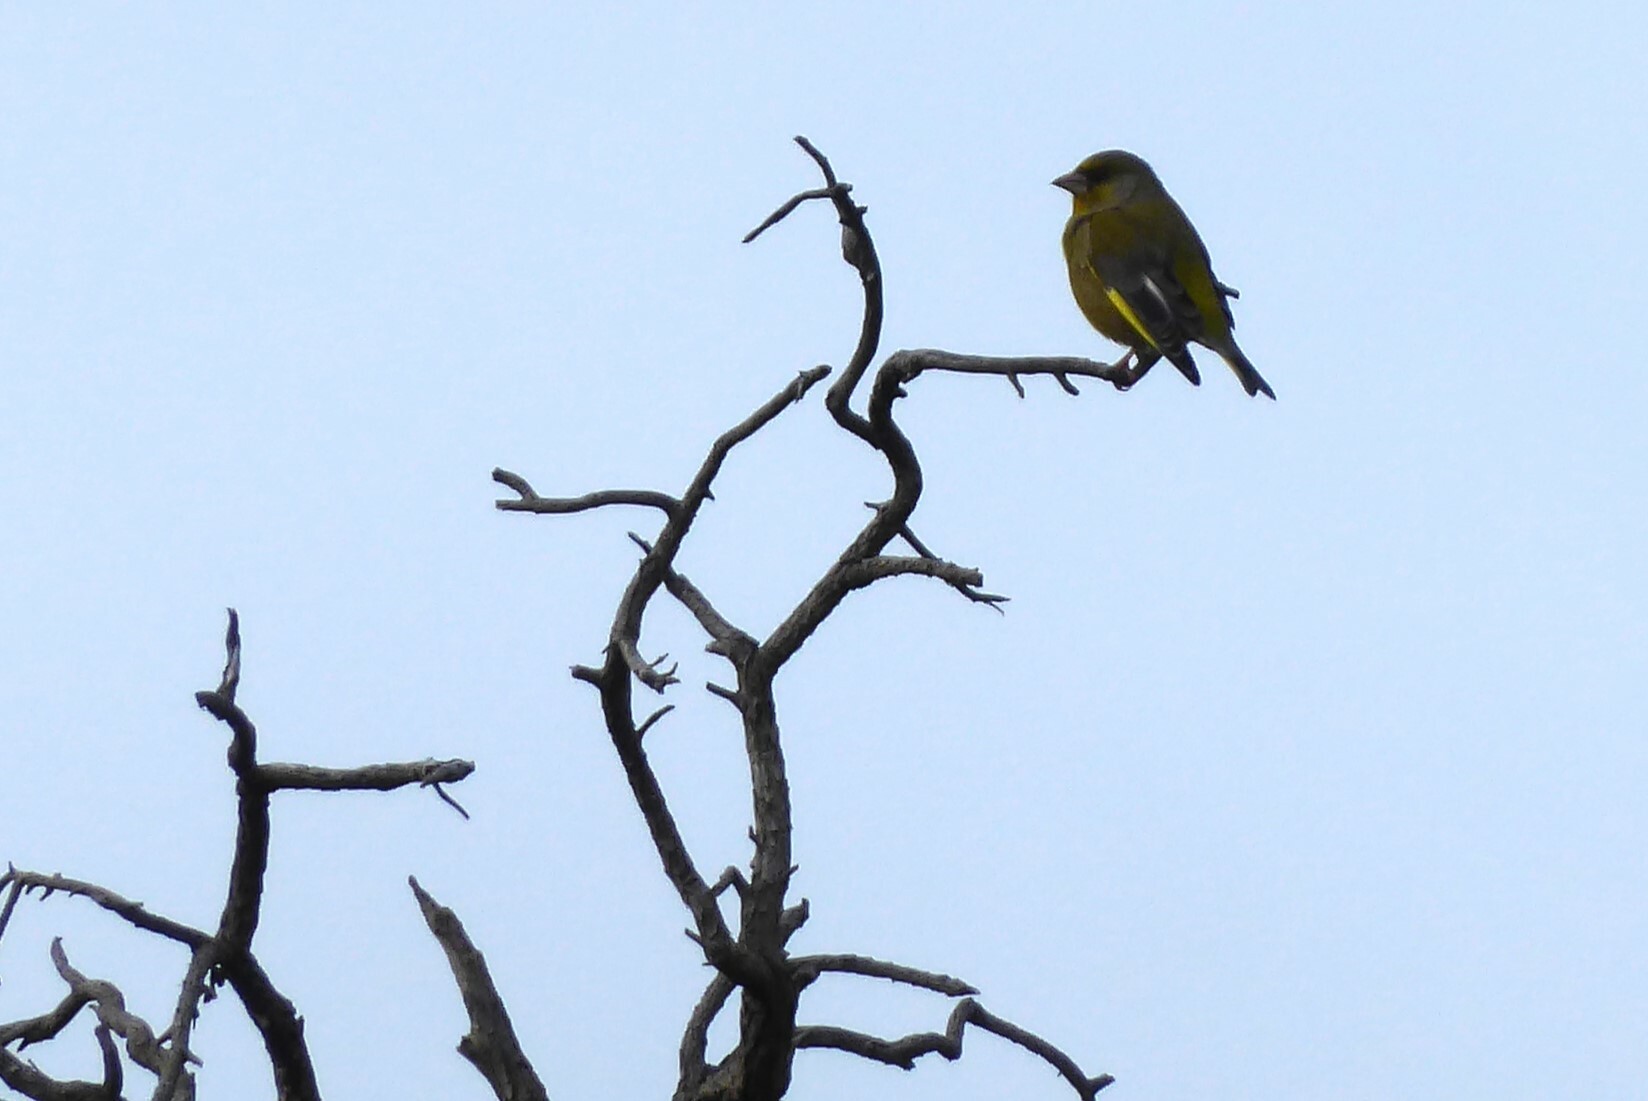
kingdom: Plantae
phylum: Tracheophyta
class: Liliopsida
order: Poales
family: Poaceae
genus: Chloris
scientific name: Chloris chloris
